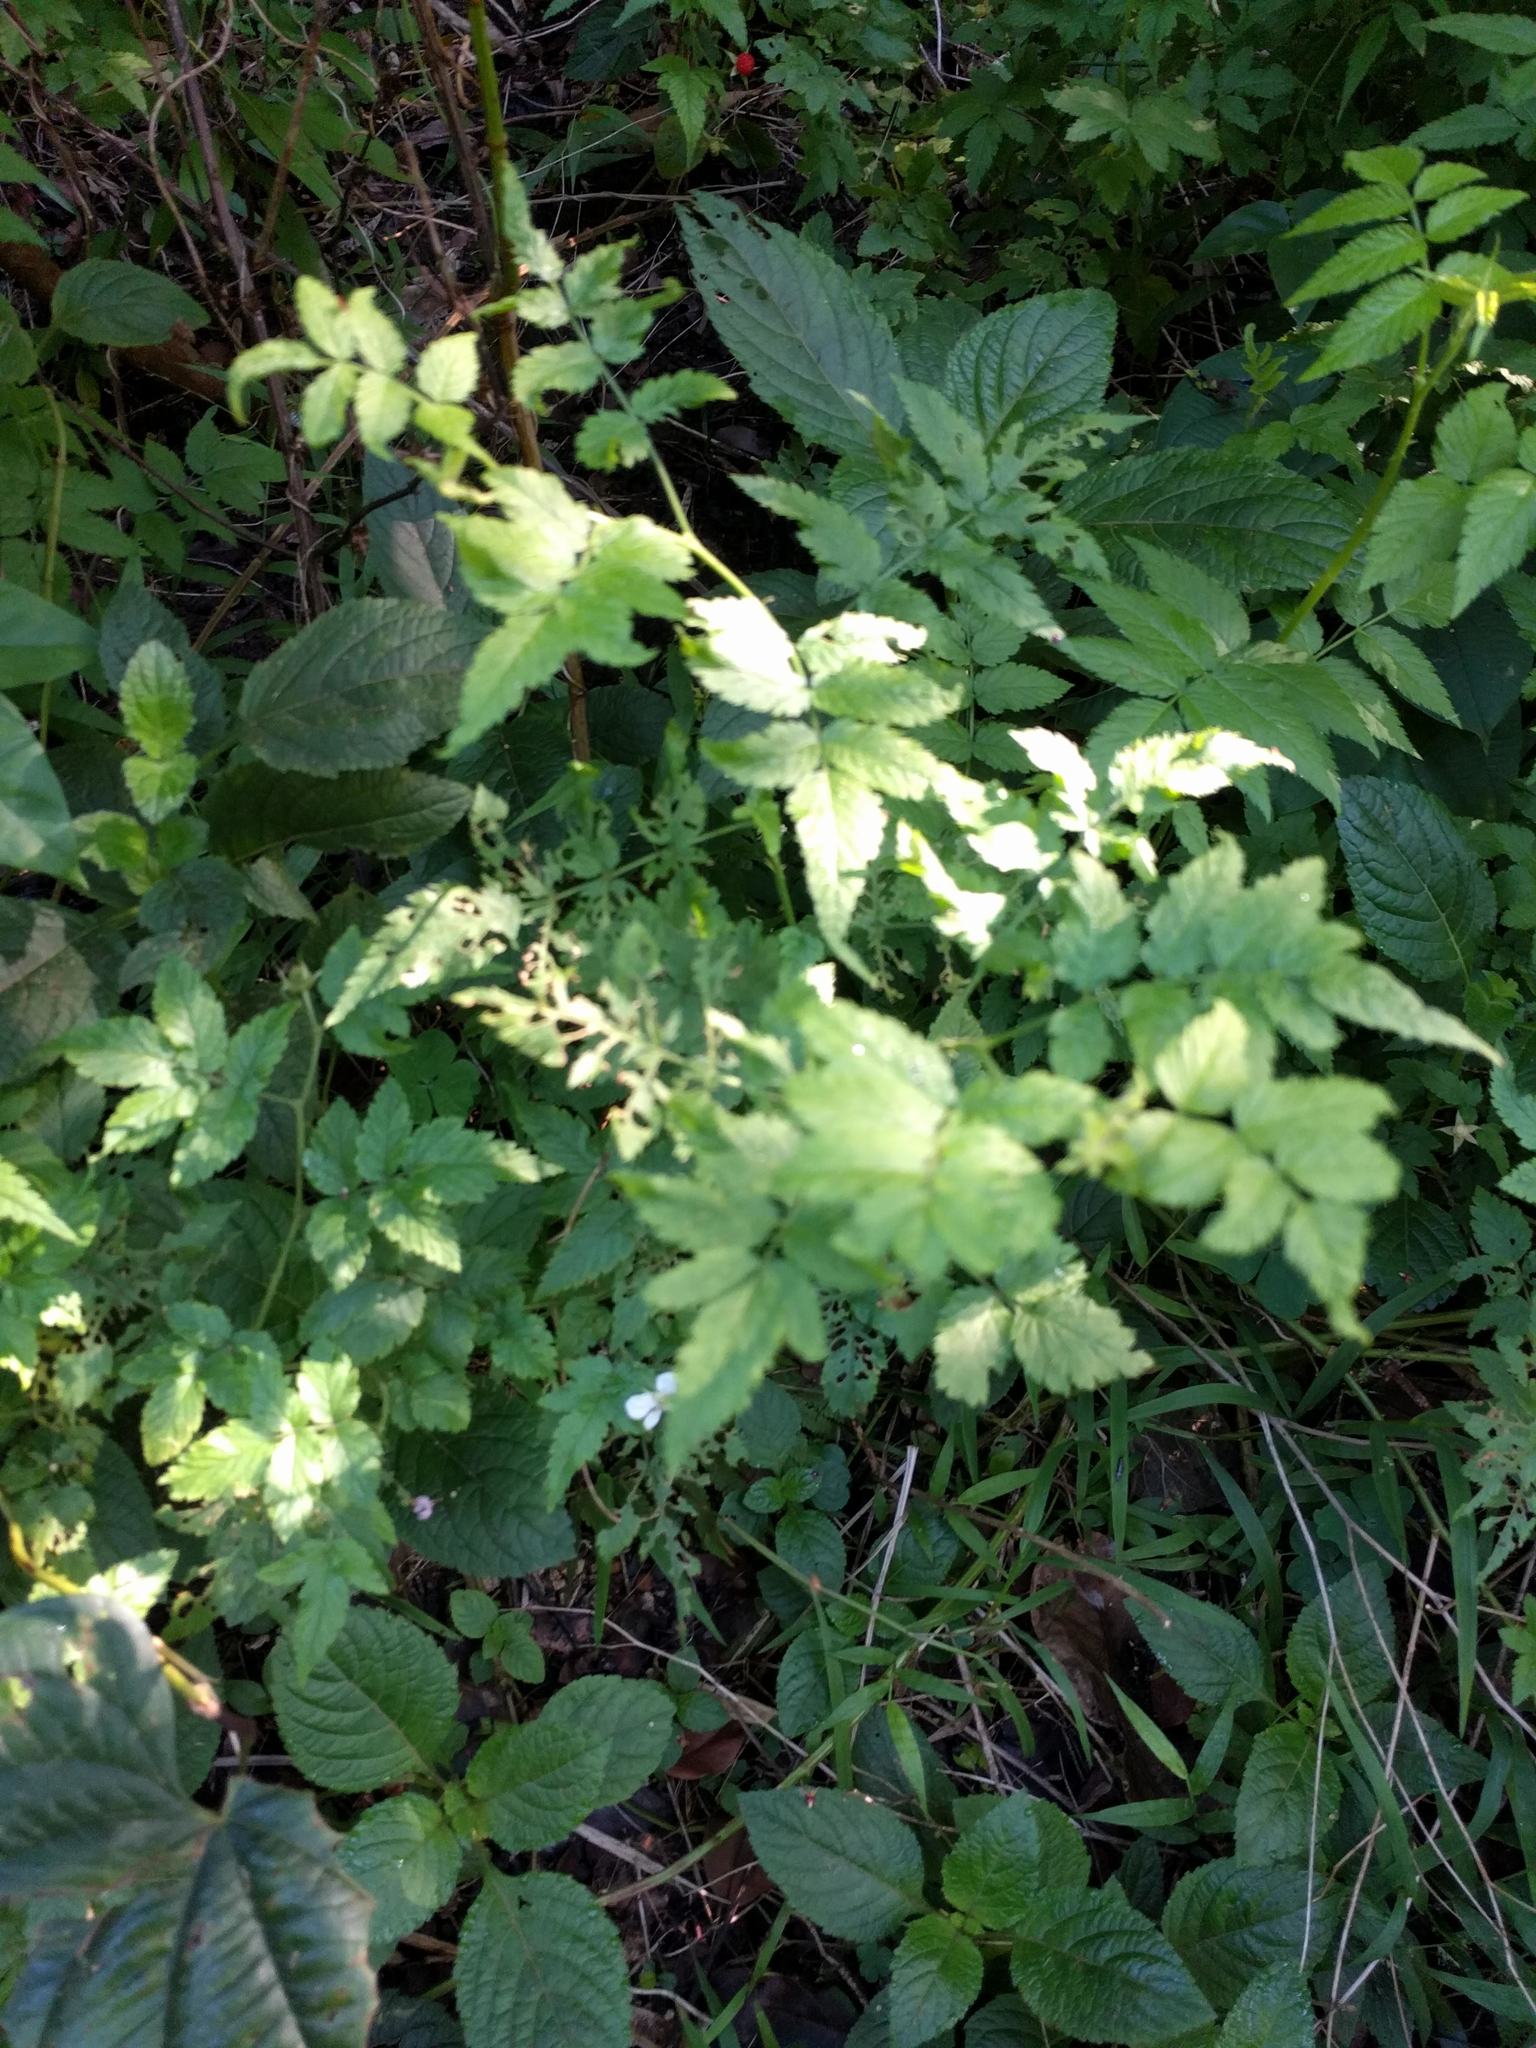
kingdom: Plantae
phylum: Tracheophyta
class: Magnoliopsida
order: Rosales
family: Rosaceae
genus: Rubus
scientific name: Rubus rosifolius
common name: Roseleaf raspberry
